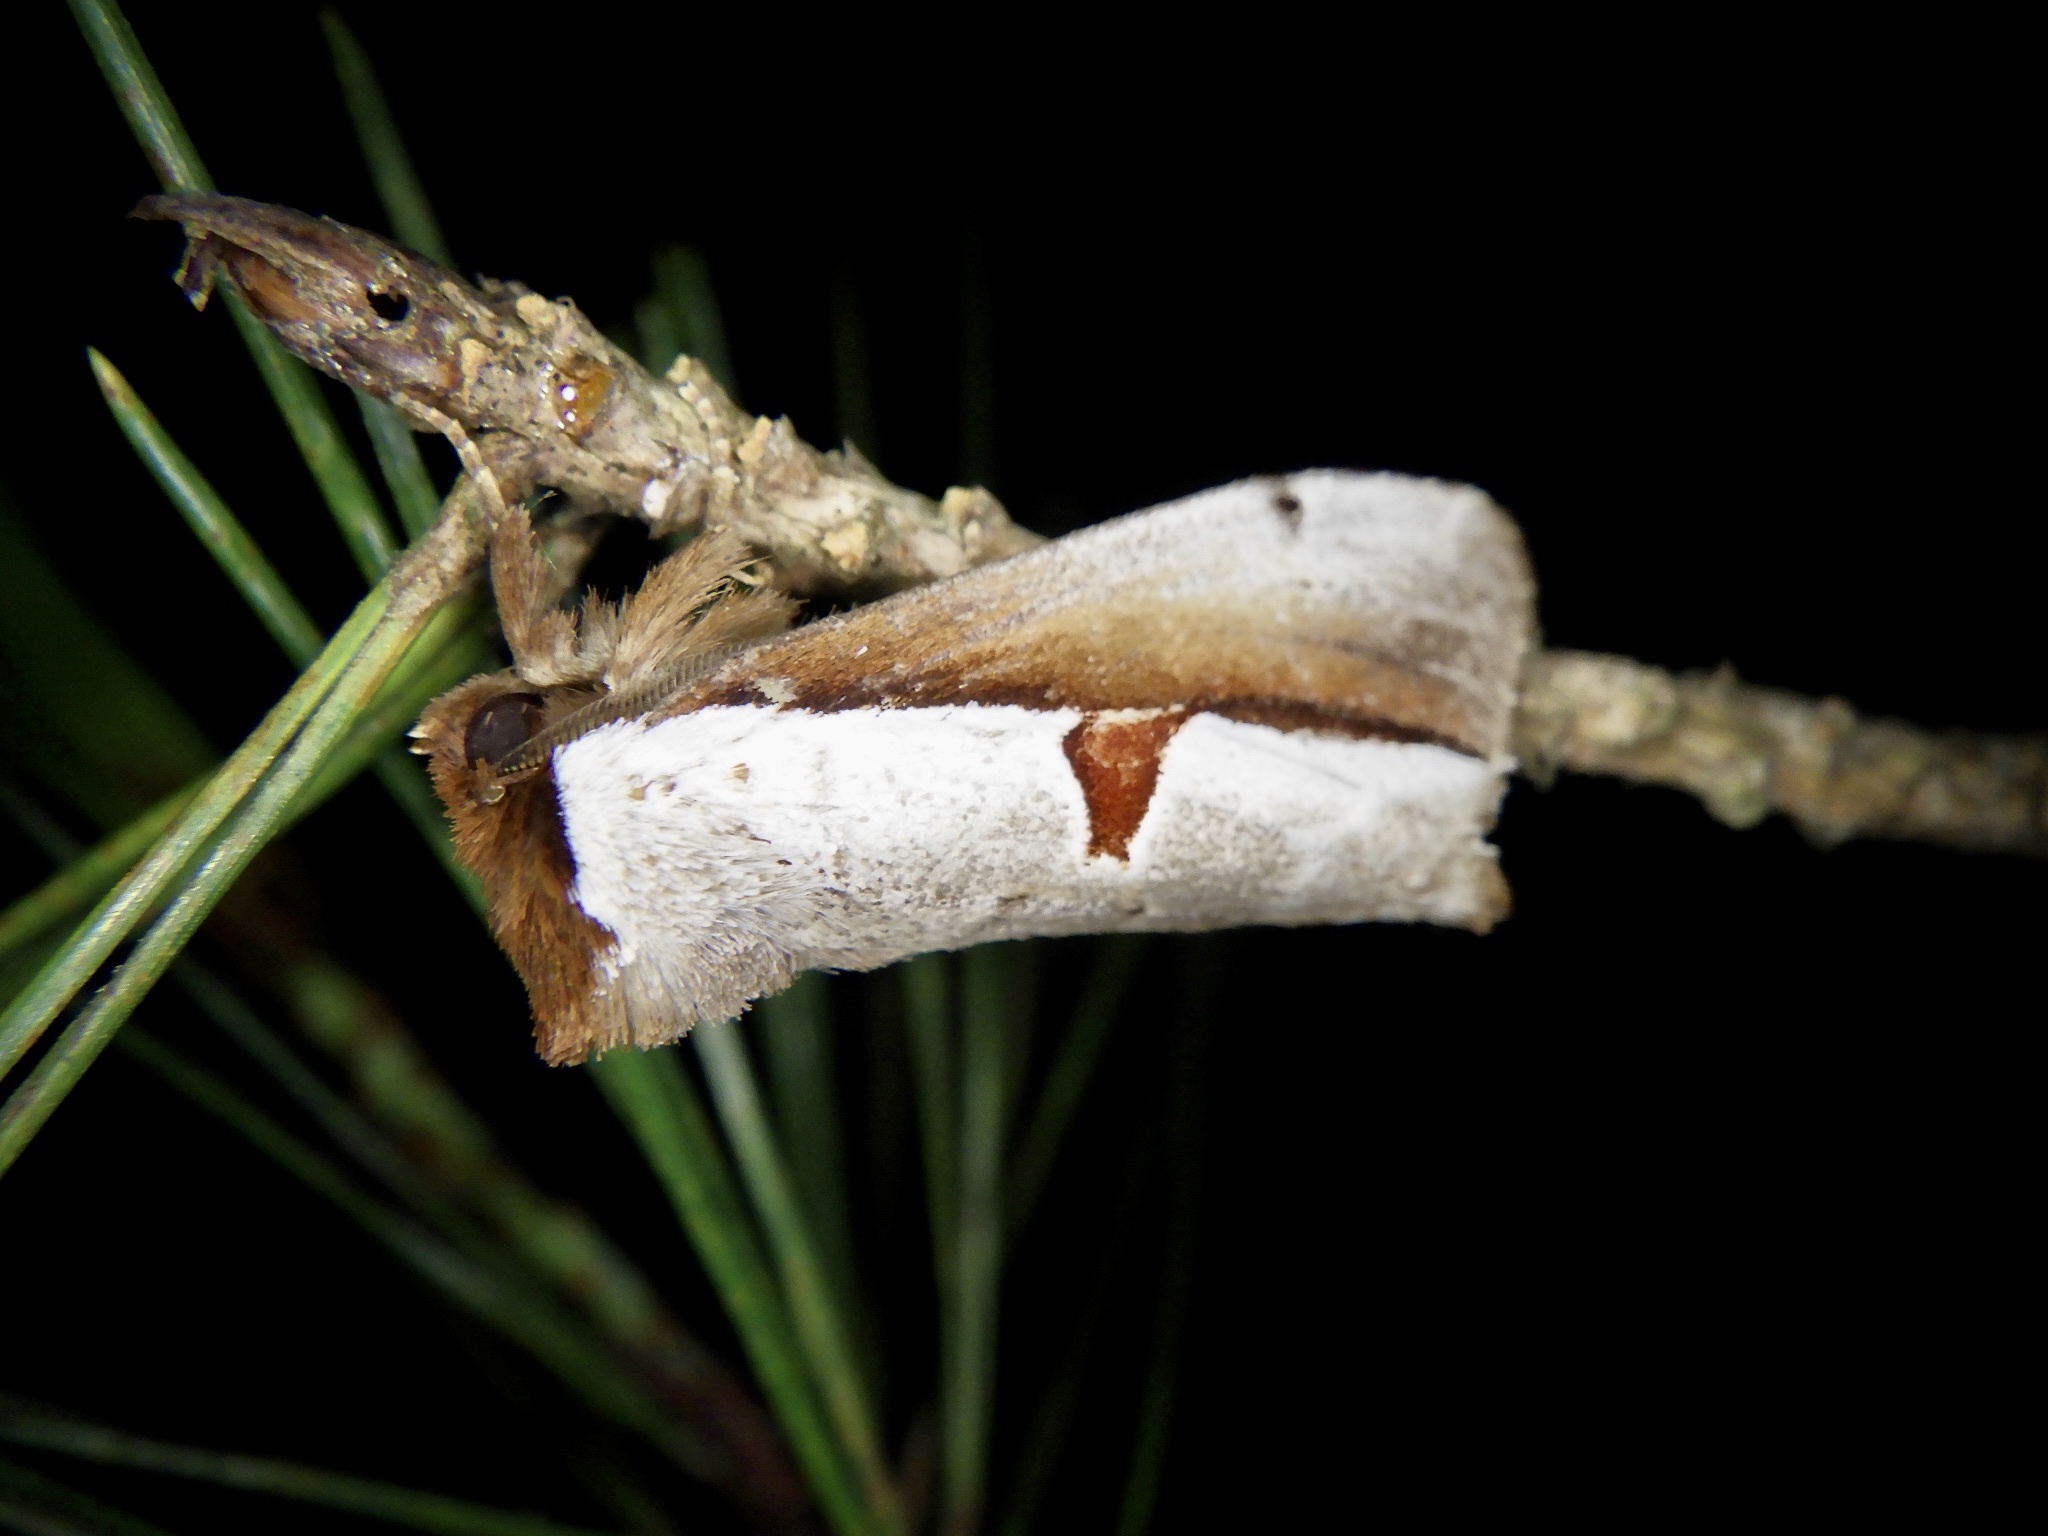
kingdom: Animalia
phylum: Arthropoda
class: Insecta
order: Lepidoptera
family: Notodontidae
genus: Nerice
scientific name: Nerice bipartita
